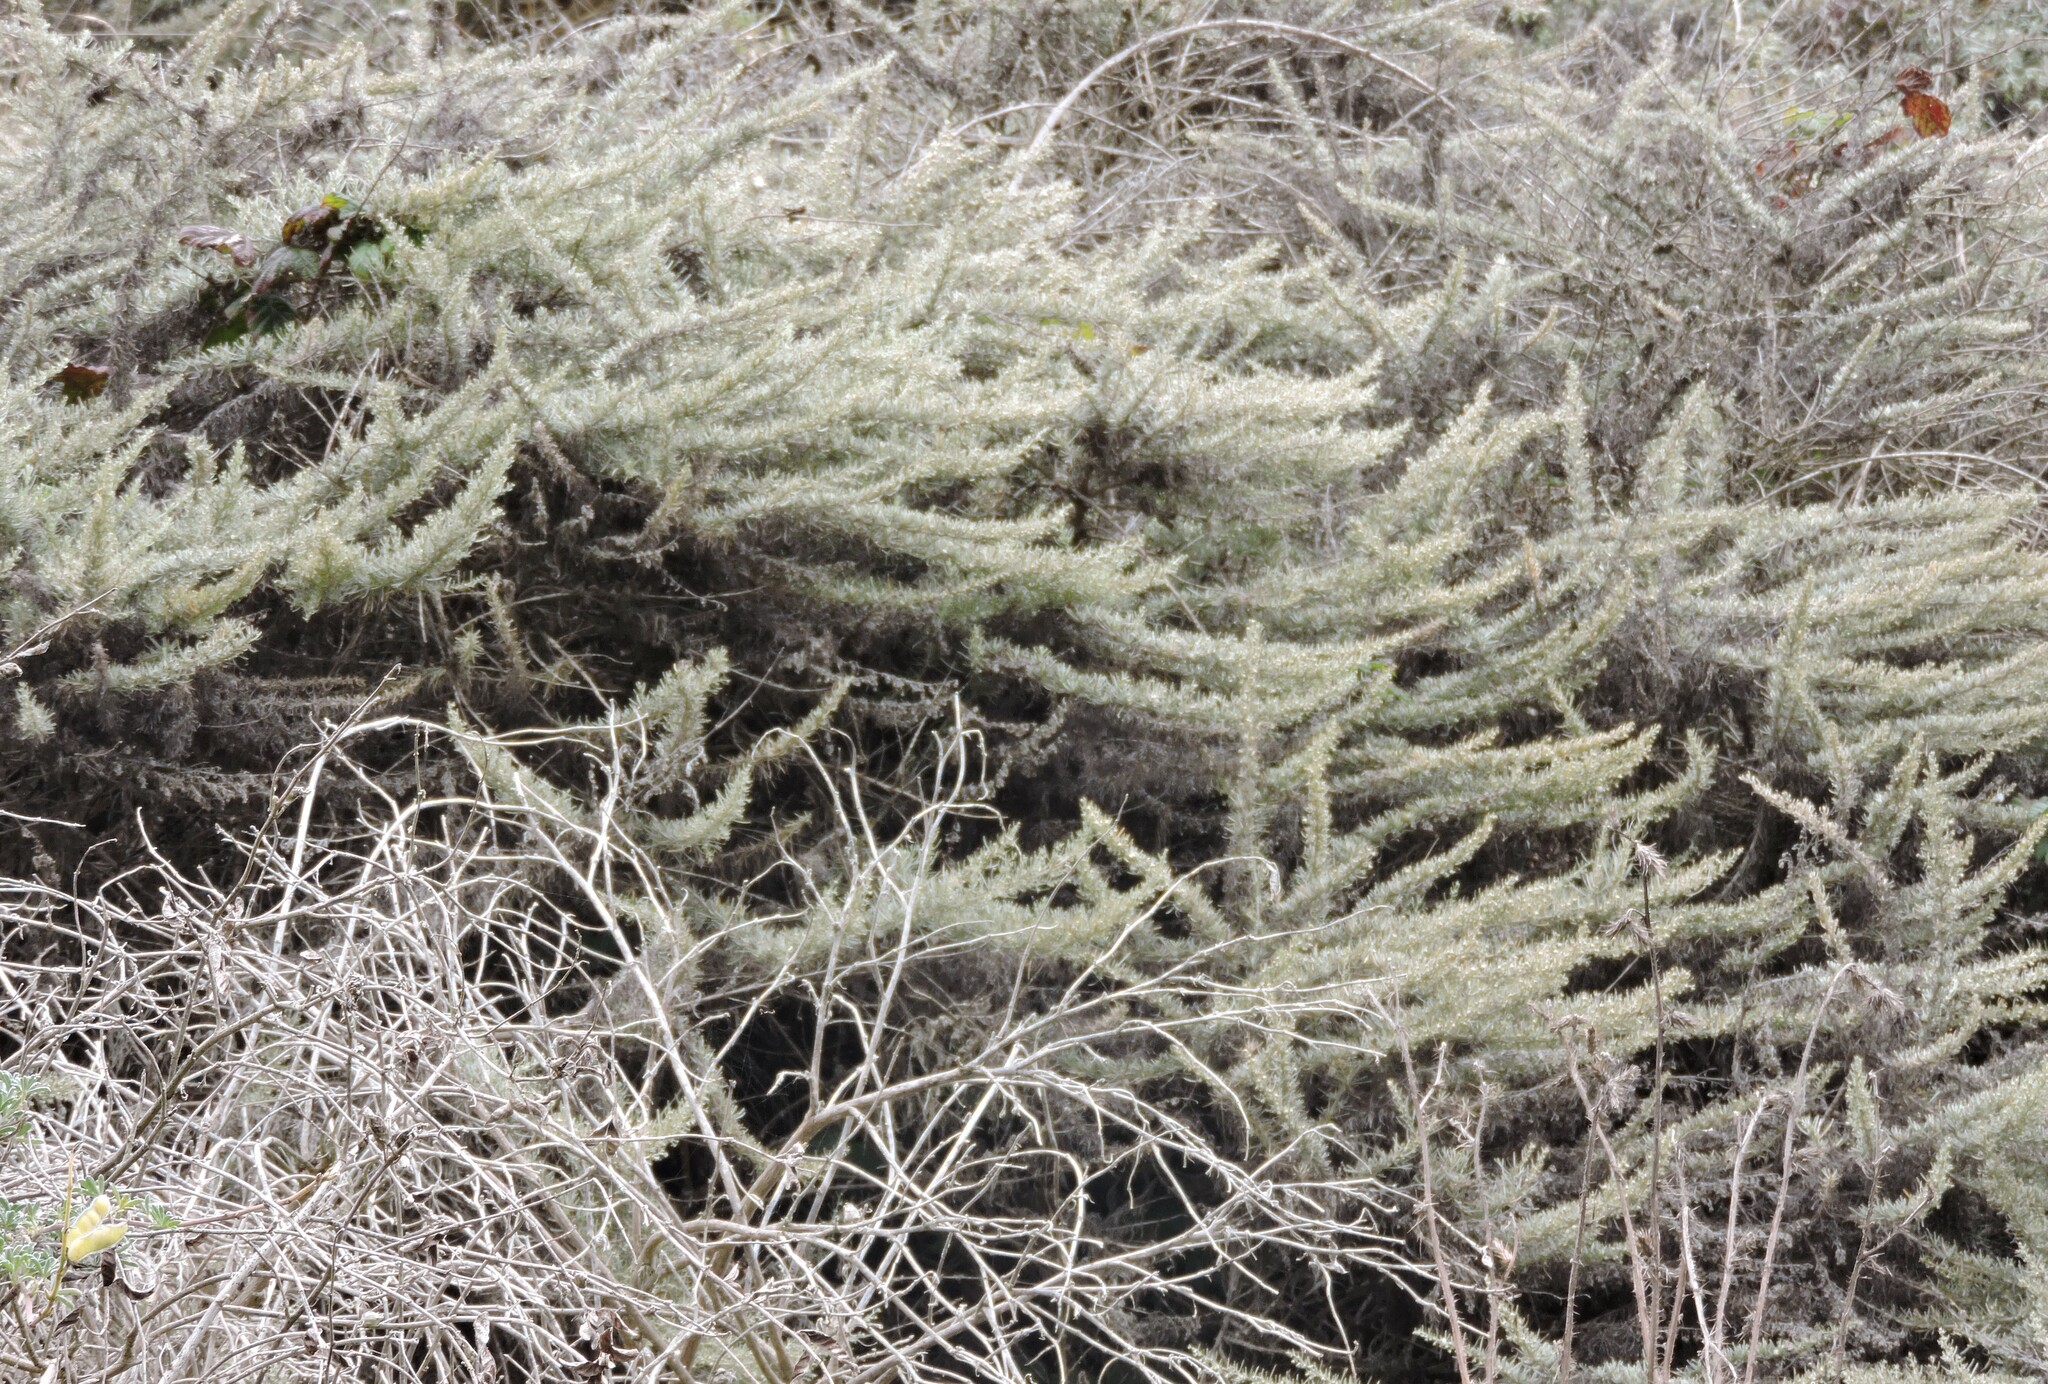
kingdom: Plantae
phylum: Tracheophyta
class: Magnoliopsida
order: Asterales
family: Asteraceae
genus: Artemisia
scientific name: Artemisia californica
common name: California sagebrush
